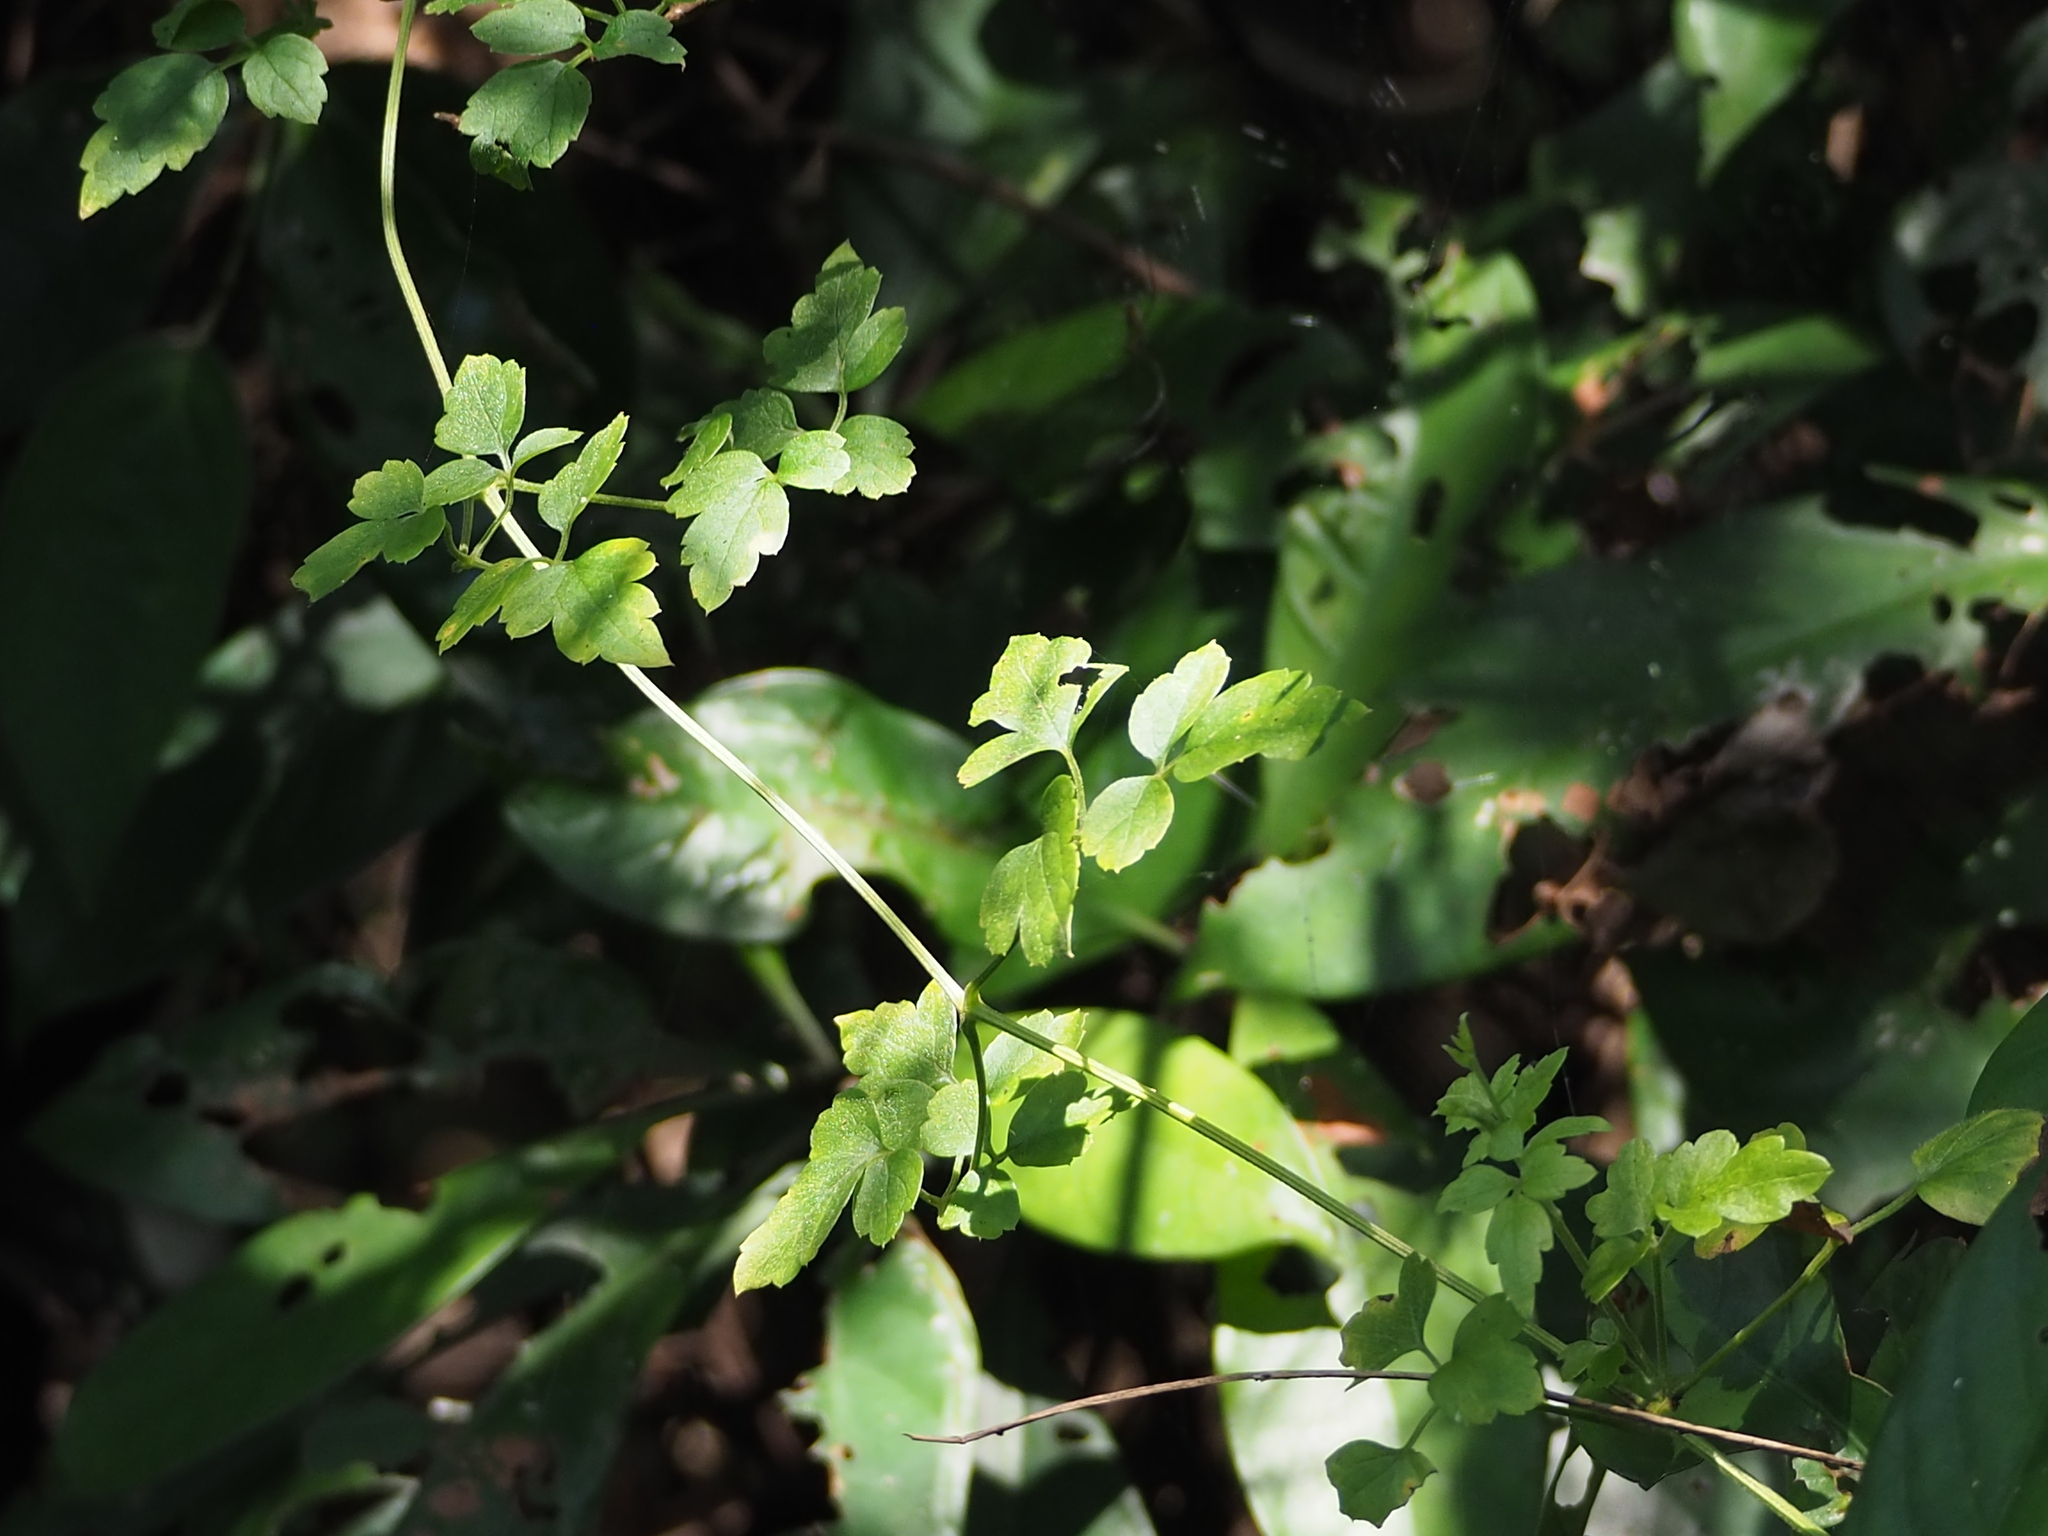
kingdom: Plantae
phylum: Tracheophyta
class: Magnoliopsida
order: Ranunculales
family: Ranunculaceae
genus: Clematis
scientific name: Clematis grata
